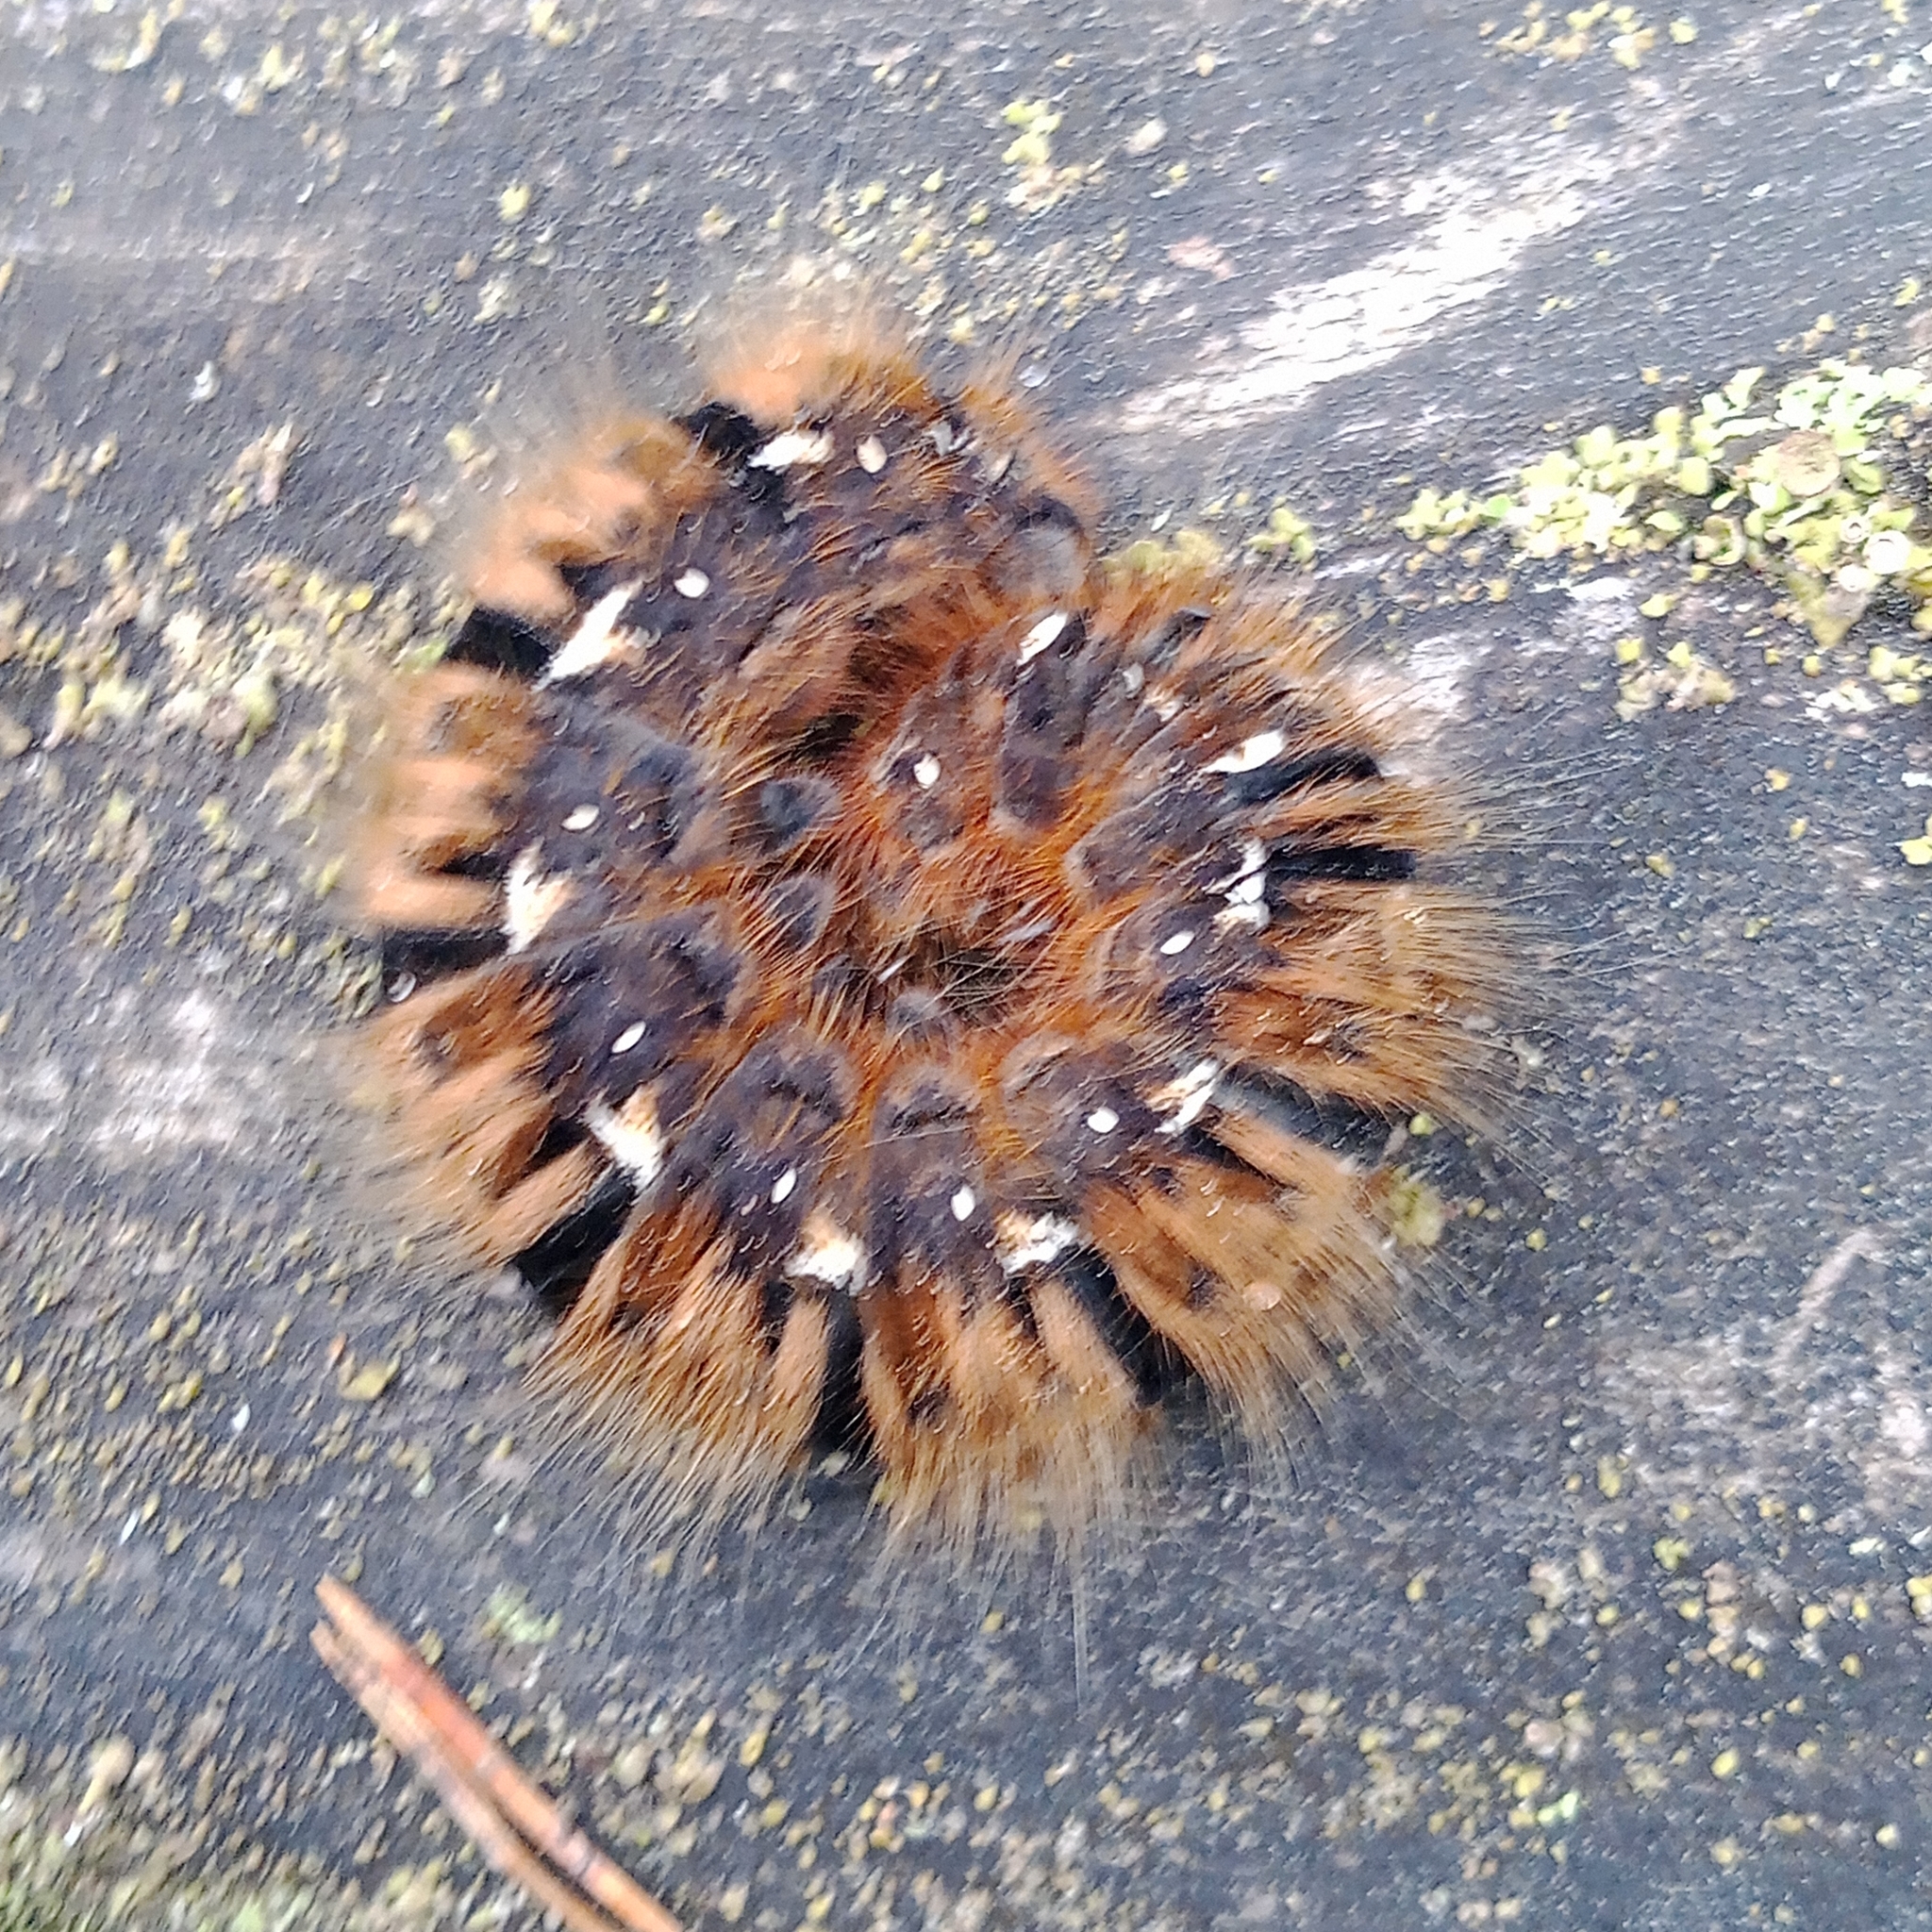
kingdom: Animalia
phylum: Arthropoda
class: Insecta
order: Lepidoptera
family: Lasiocampidae
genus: Lasiocampa
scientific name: Lasiocampa quercus
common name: Oak eggar
